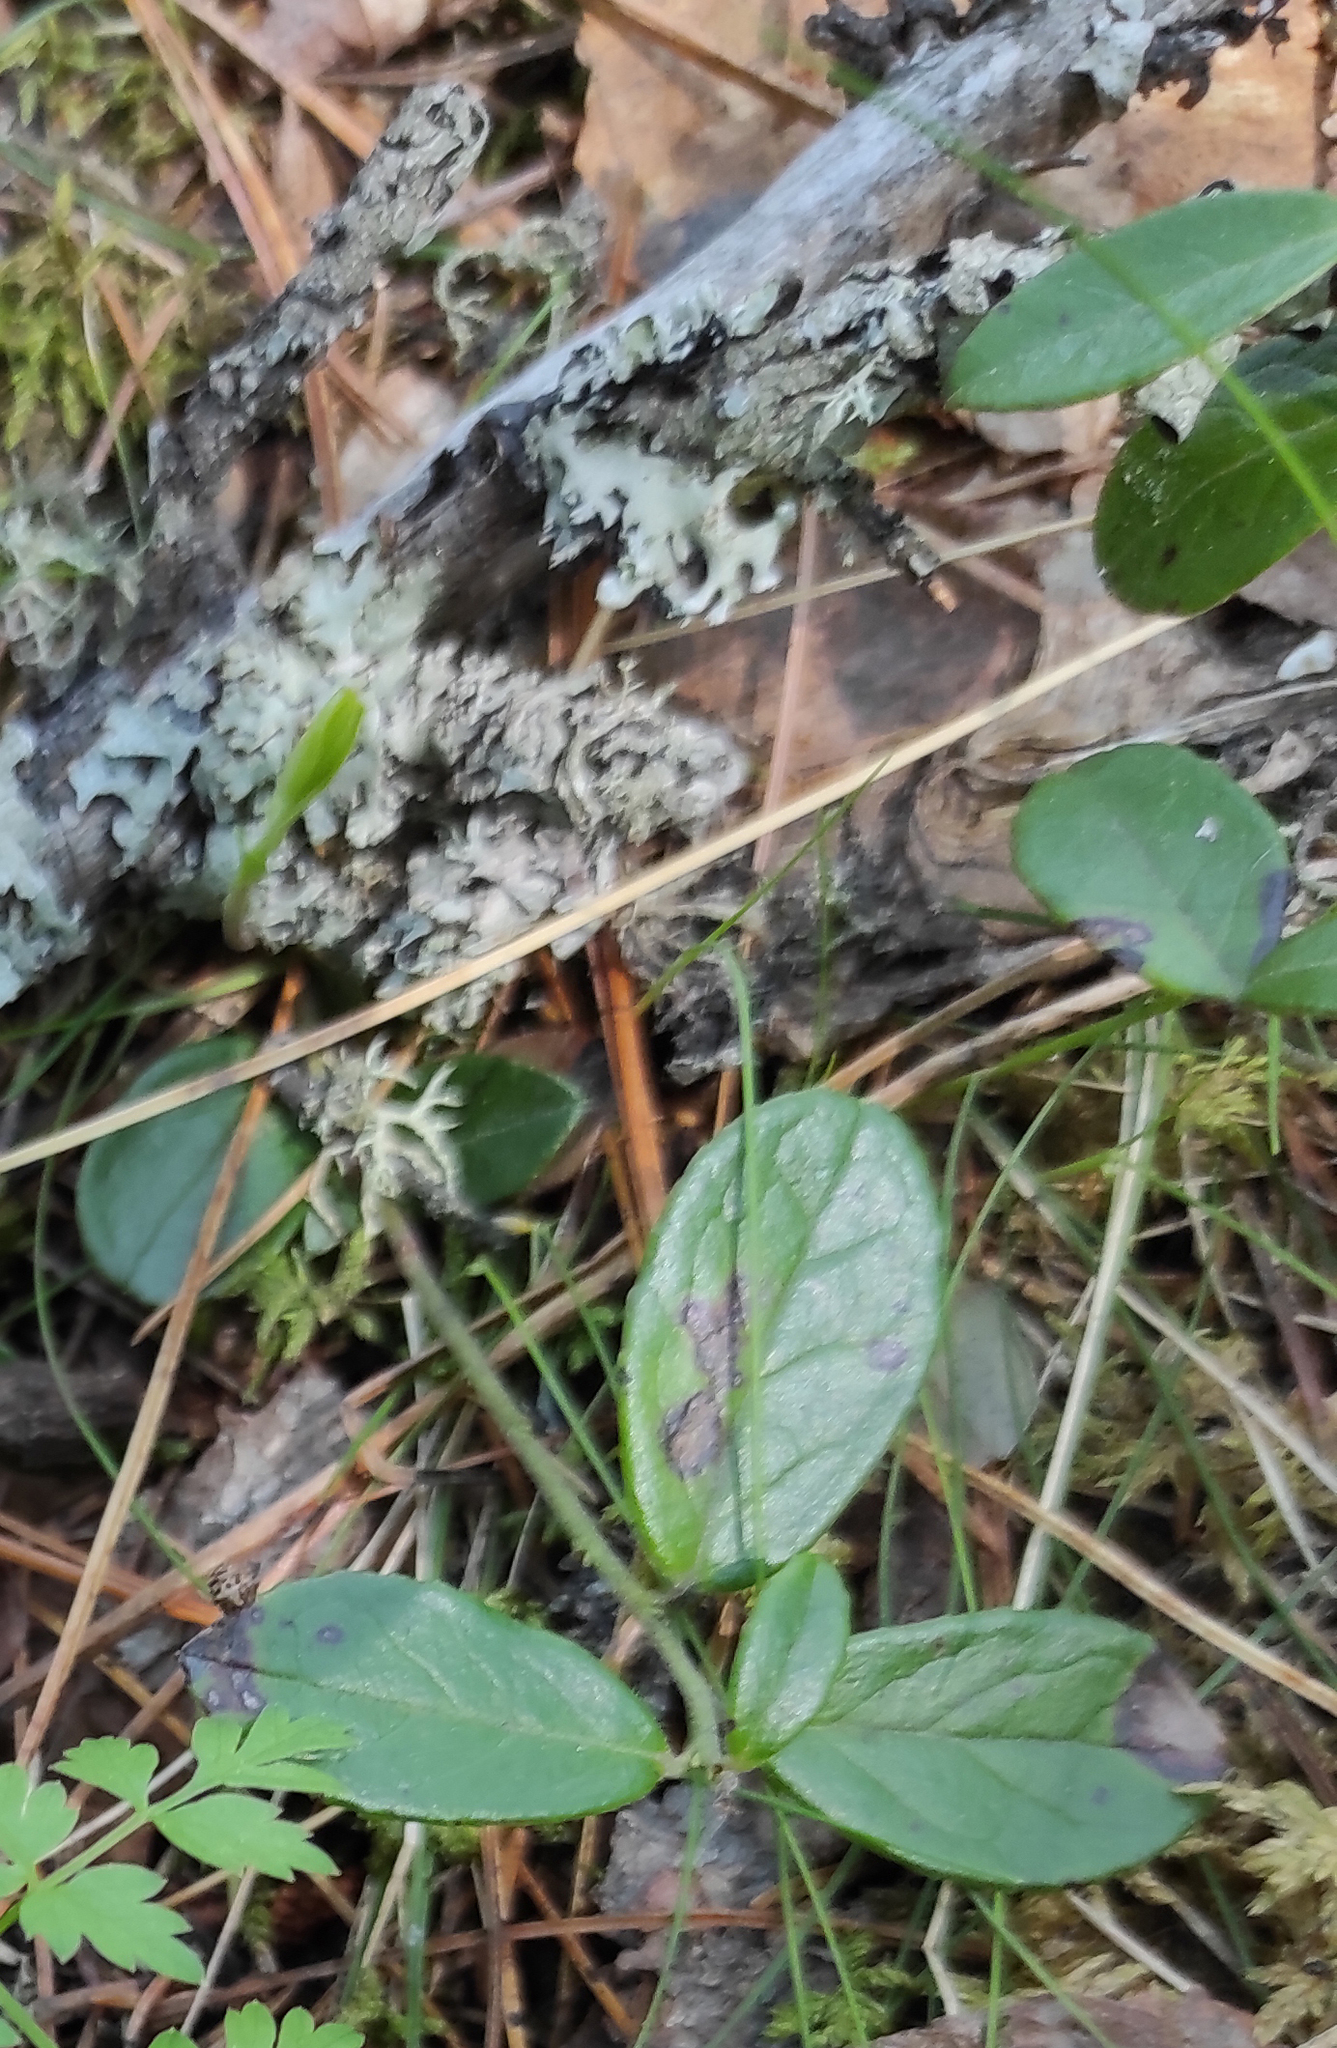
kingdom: Plantae
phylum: Tracheophyta
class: Magnoliopsida
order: Ericales
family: Ericaceae
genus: Vaccinium
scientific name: Vaccinium vitis-idaea
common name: Cowberry
